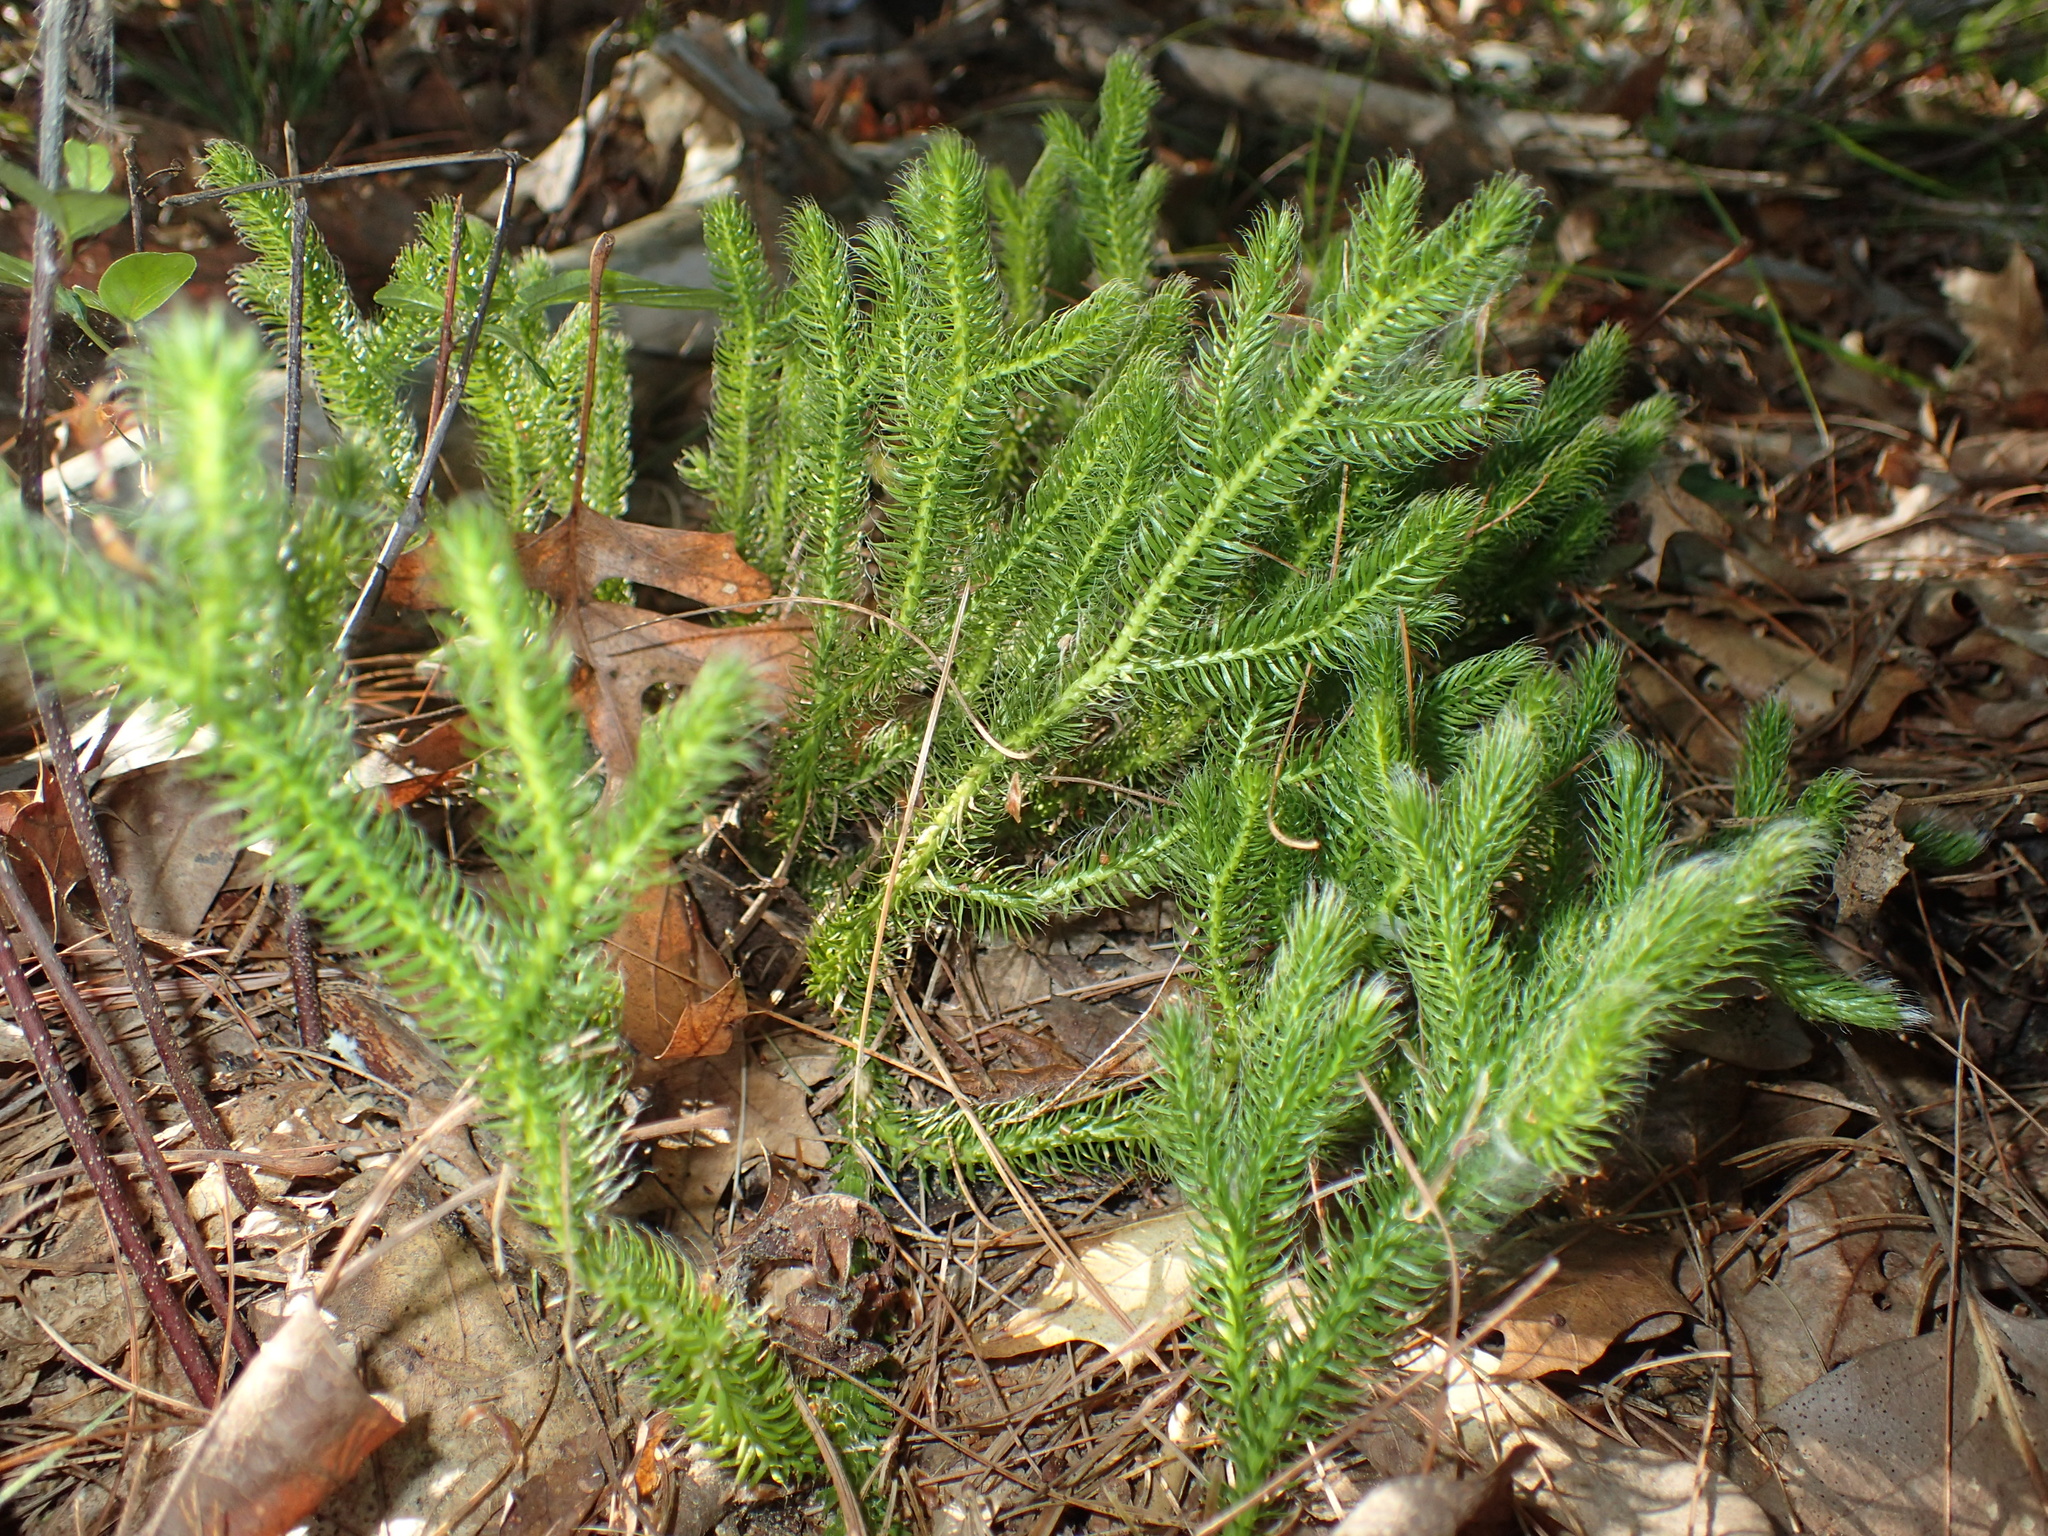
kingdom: Plantae
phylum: Tracheophyta
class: Lycopodiopsida
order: Lycopodiales
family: Lycopodiaceae
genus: Lycopodium
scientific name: Lycopodium clavatum
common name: Stag's-horn clubmoss
